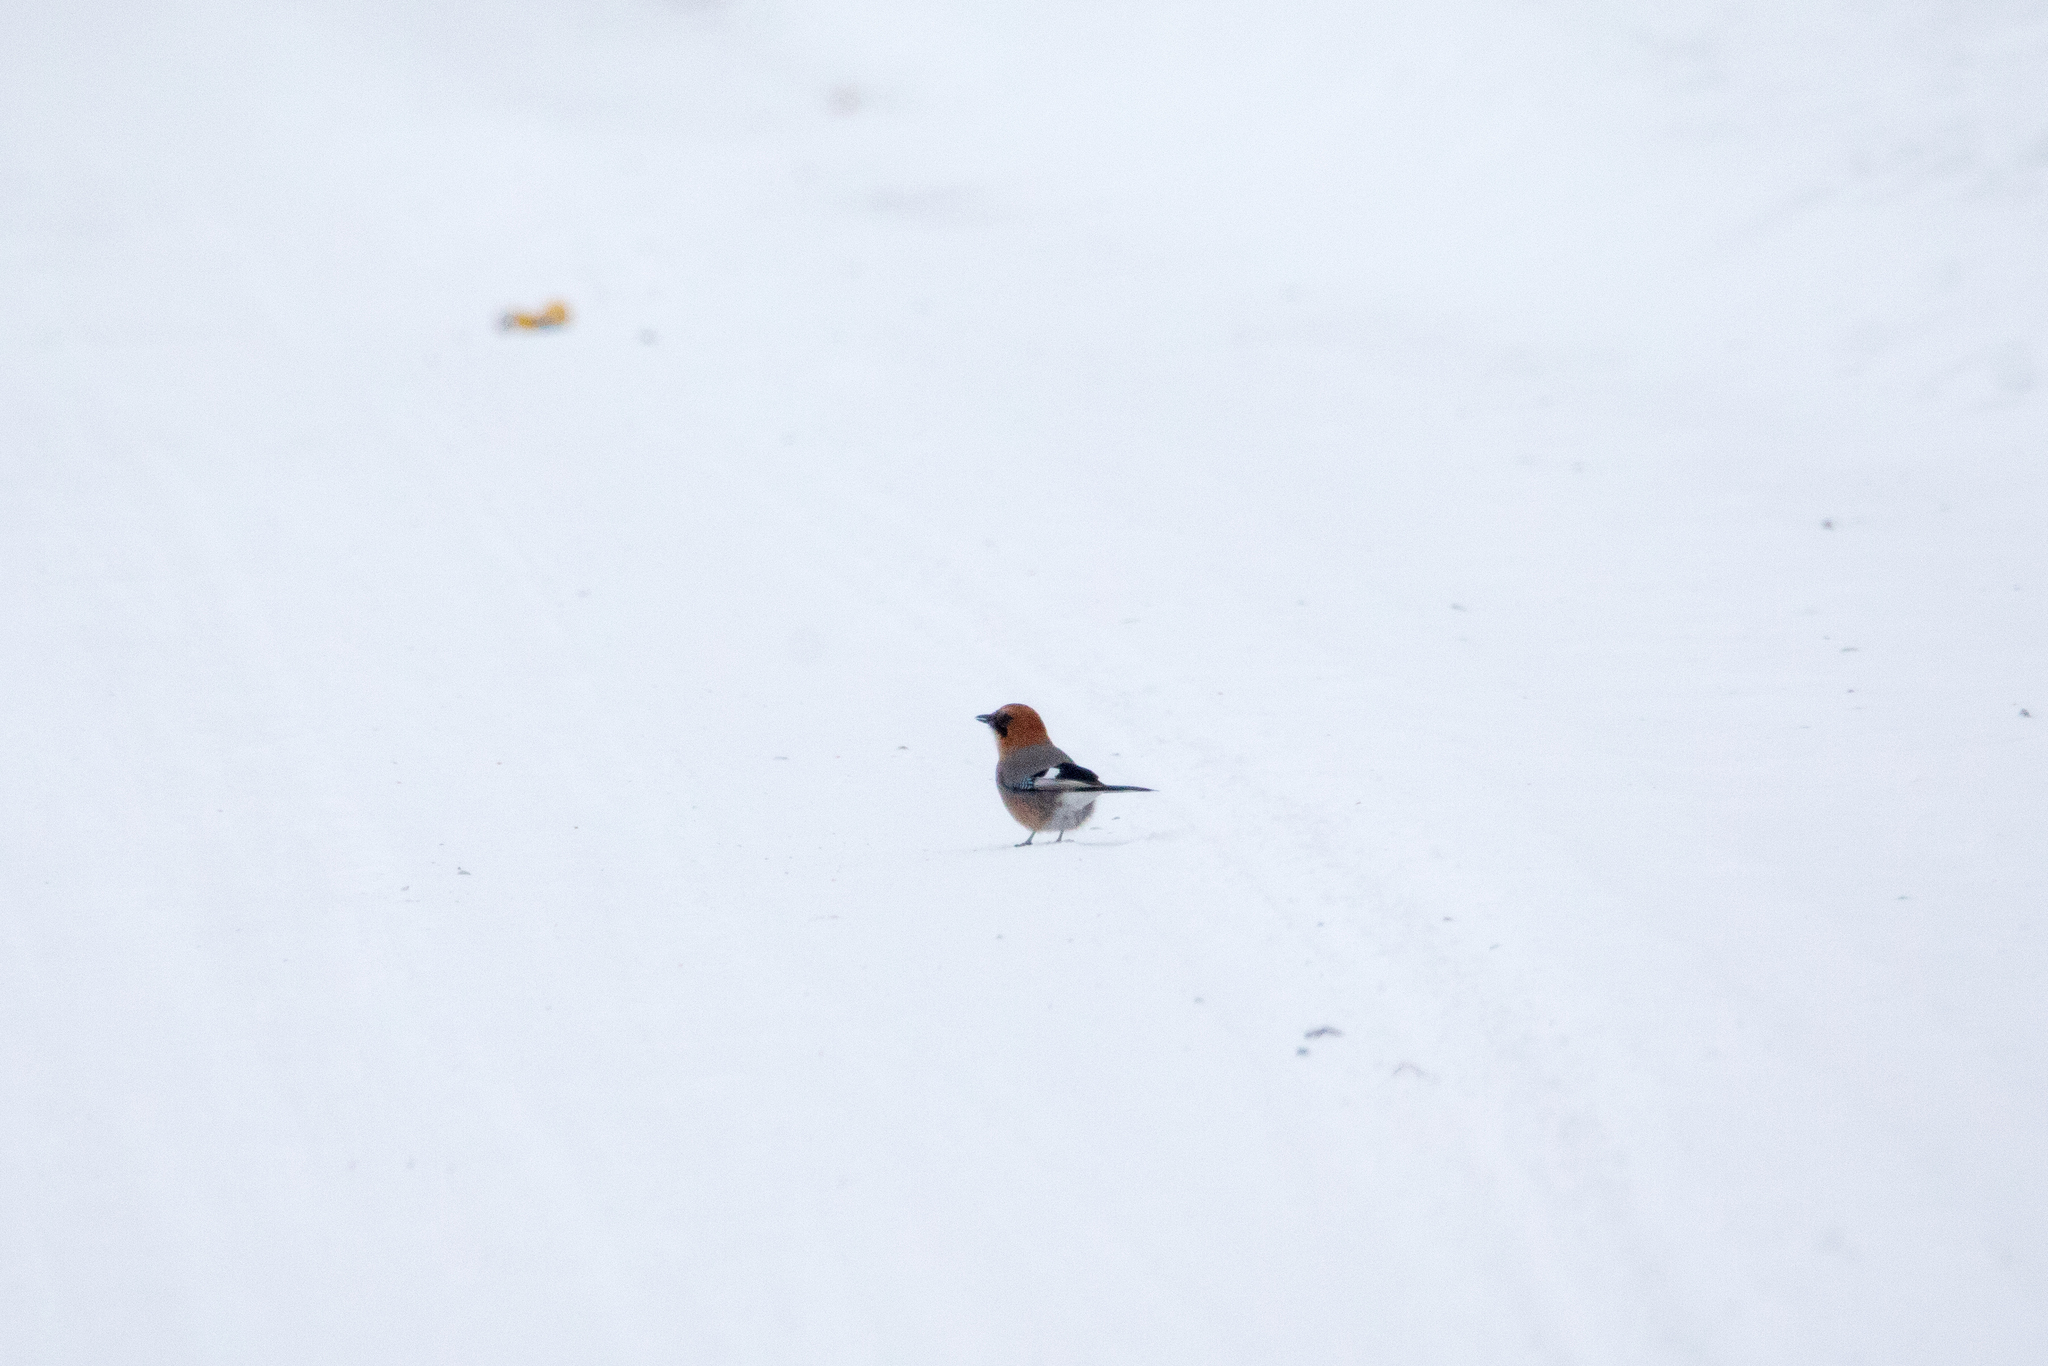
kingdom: Animalia
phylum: Chordata
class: Aves
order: Passeriformes
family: Corvidae
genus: Garrulus
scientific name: Garrulus glandarius
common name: Eurasian jay
